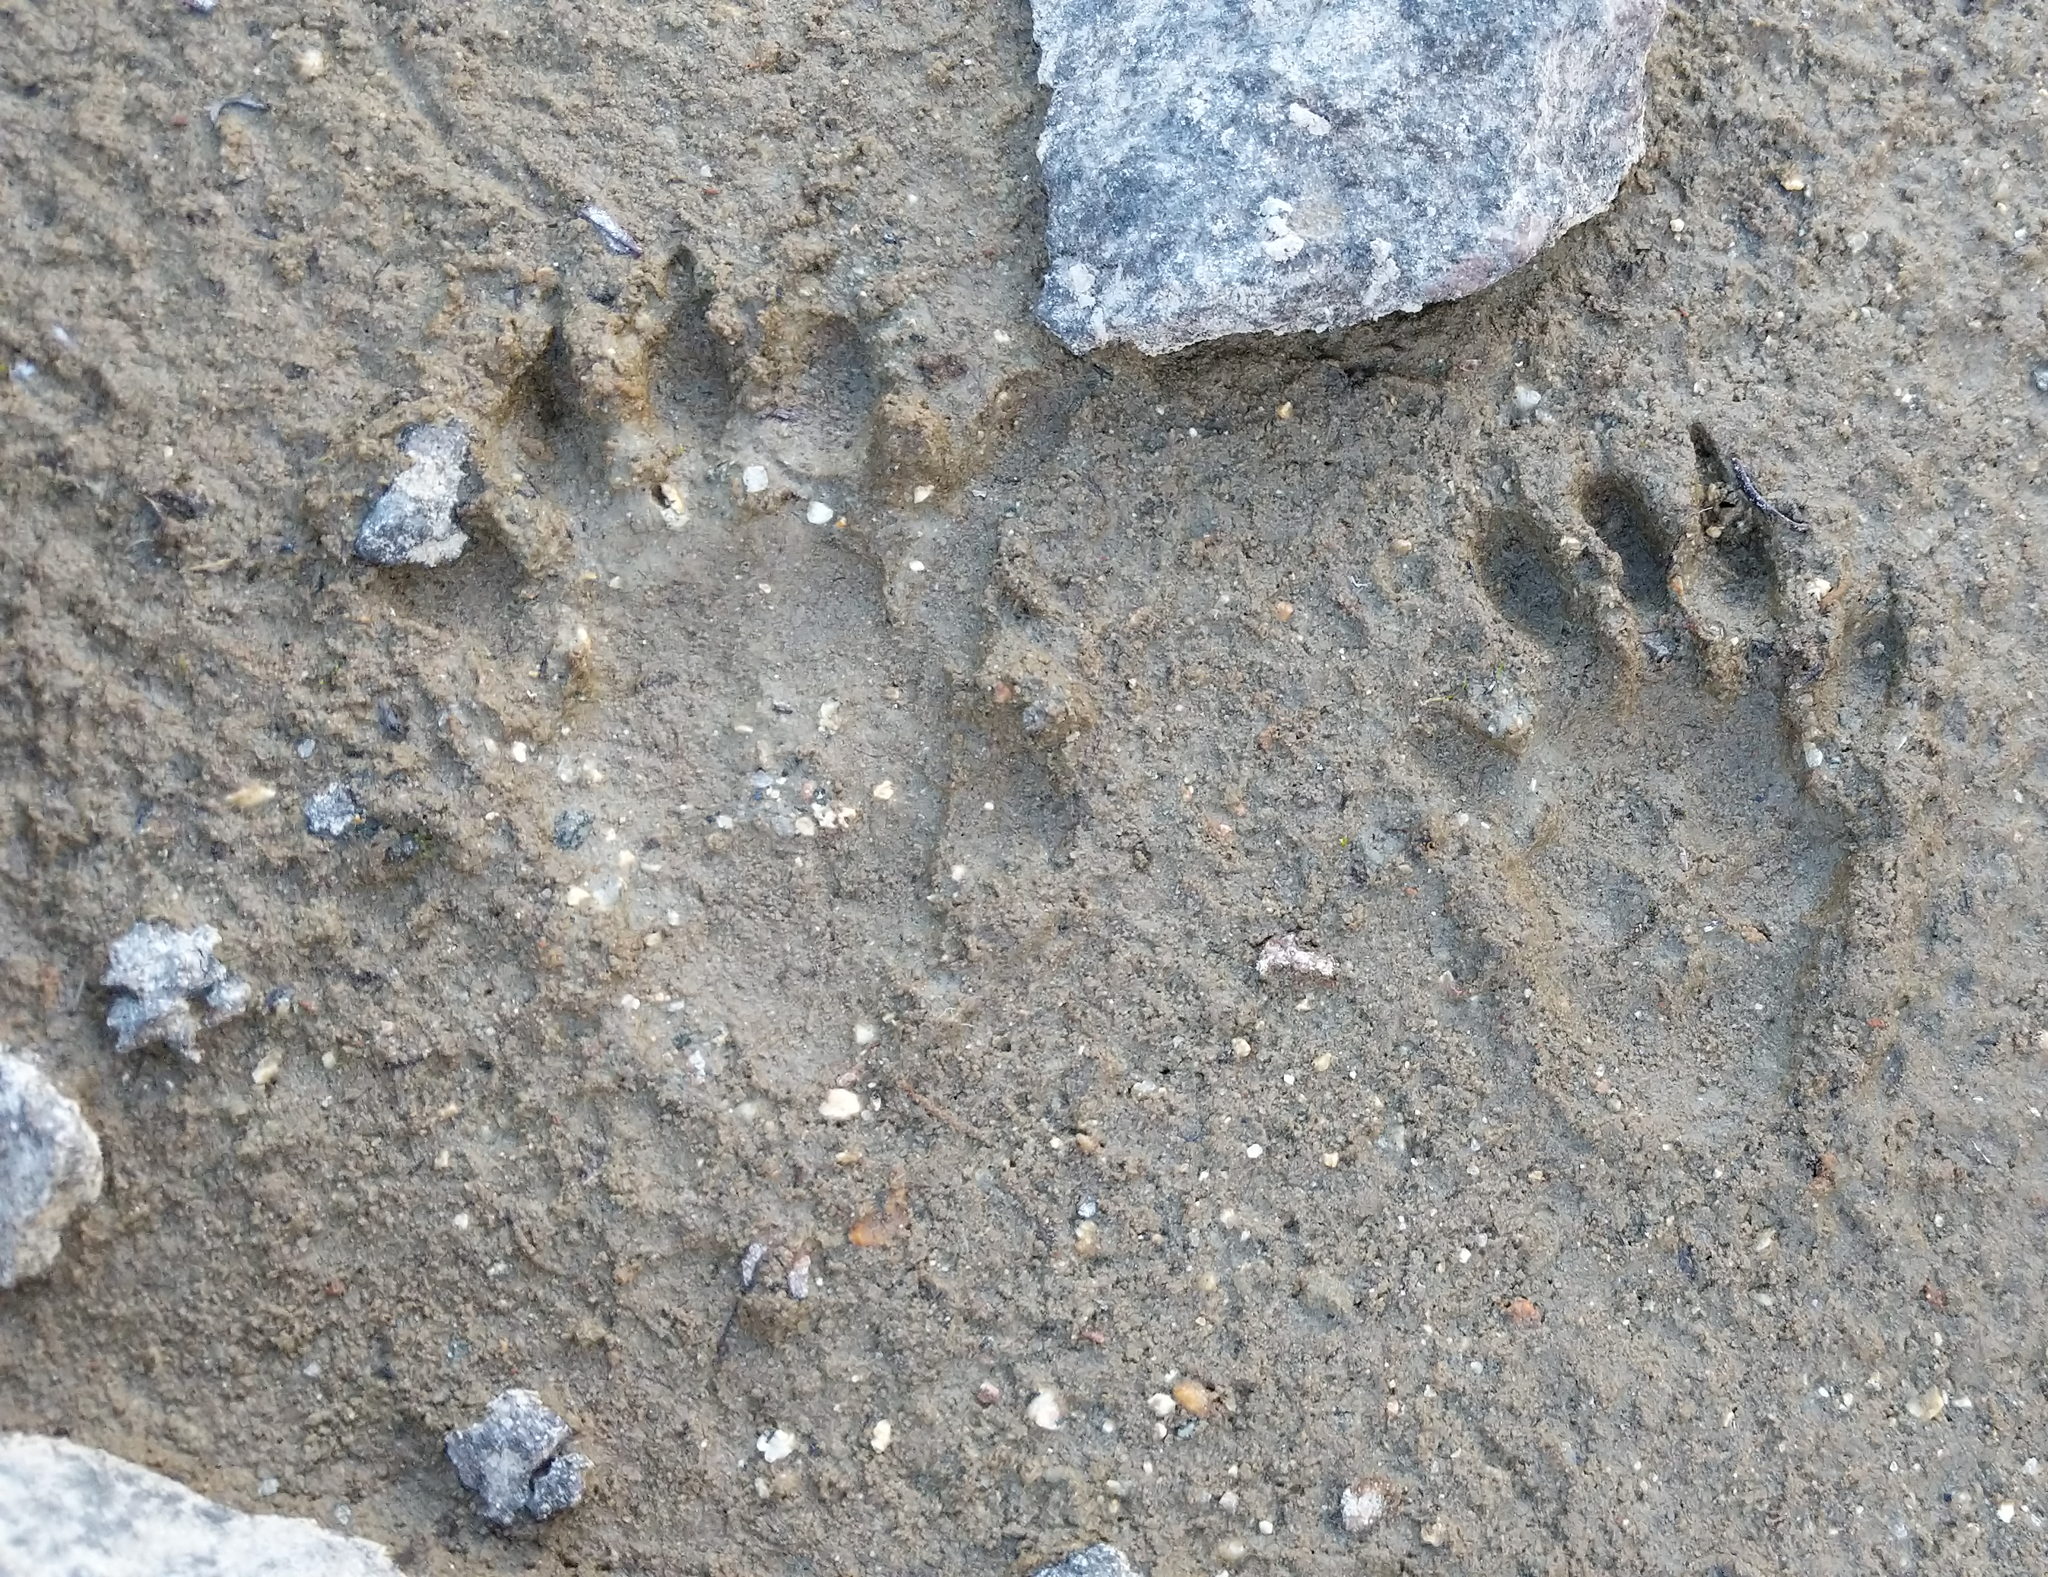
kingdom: Animalia
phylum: Chordata
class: Mammalia
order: Rodentia
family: Sciuridae
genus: Marmota
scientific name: Marmota caligata
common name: Hoary marmot
